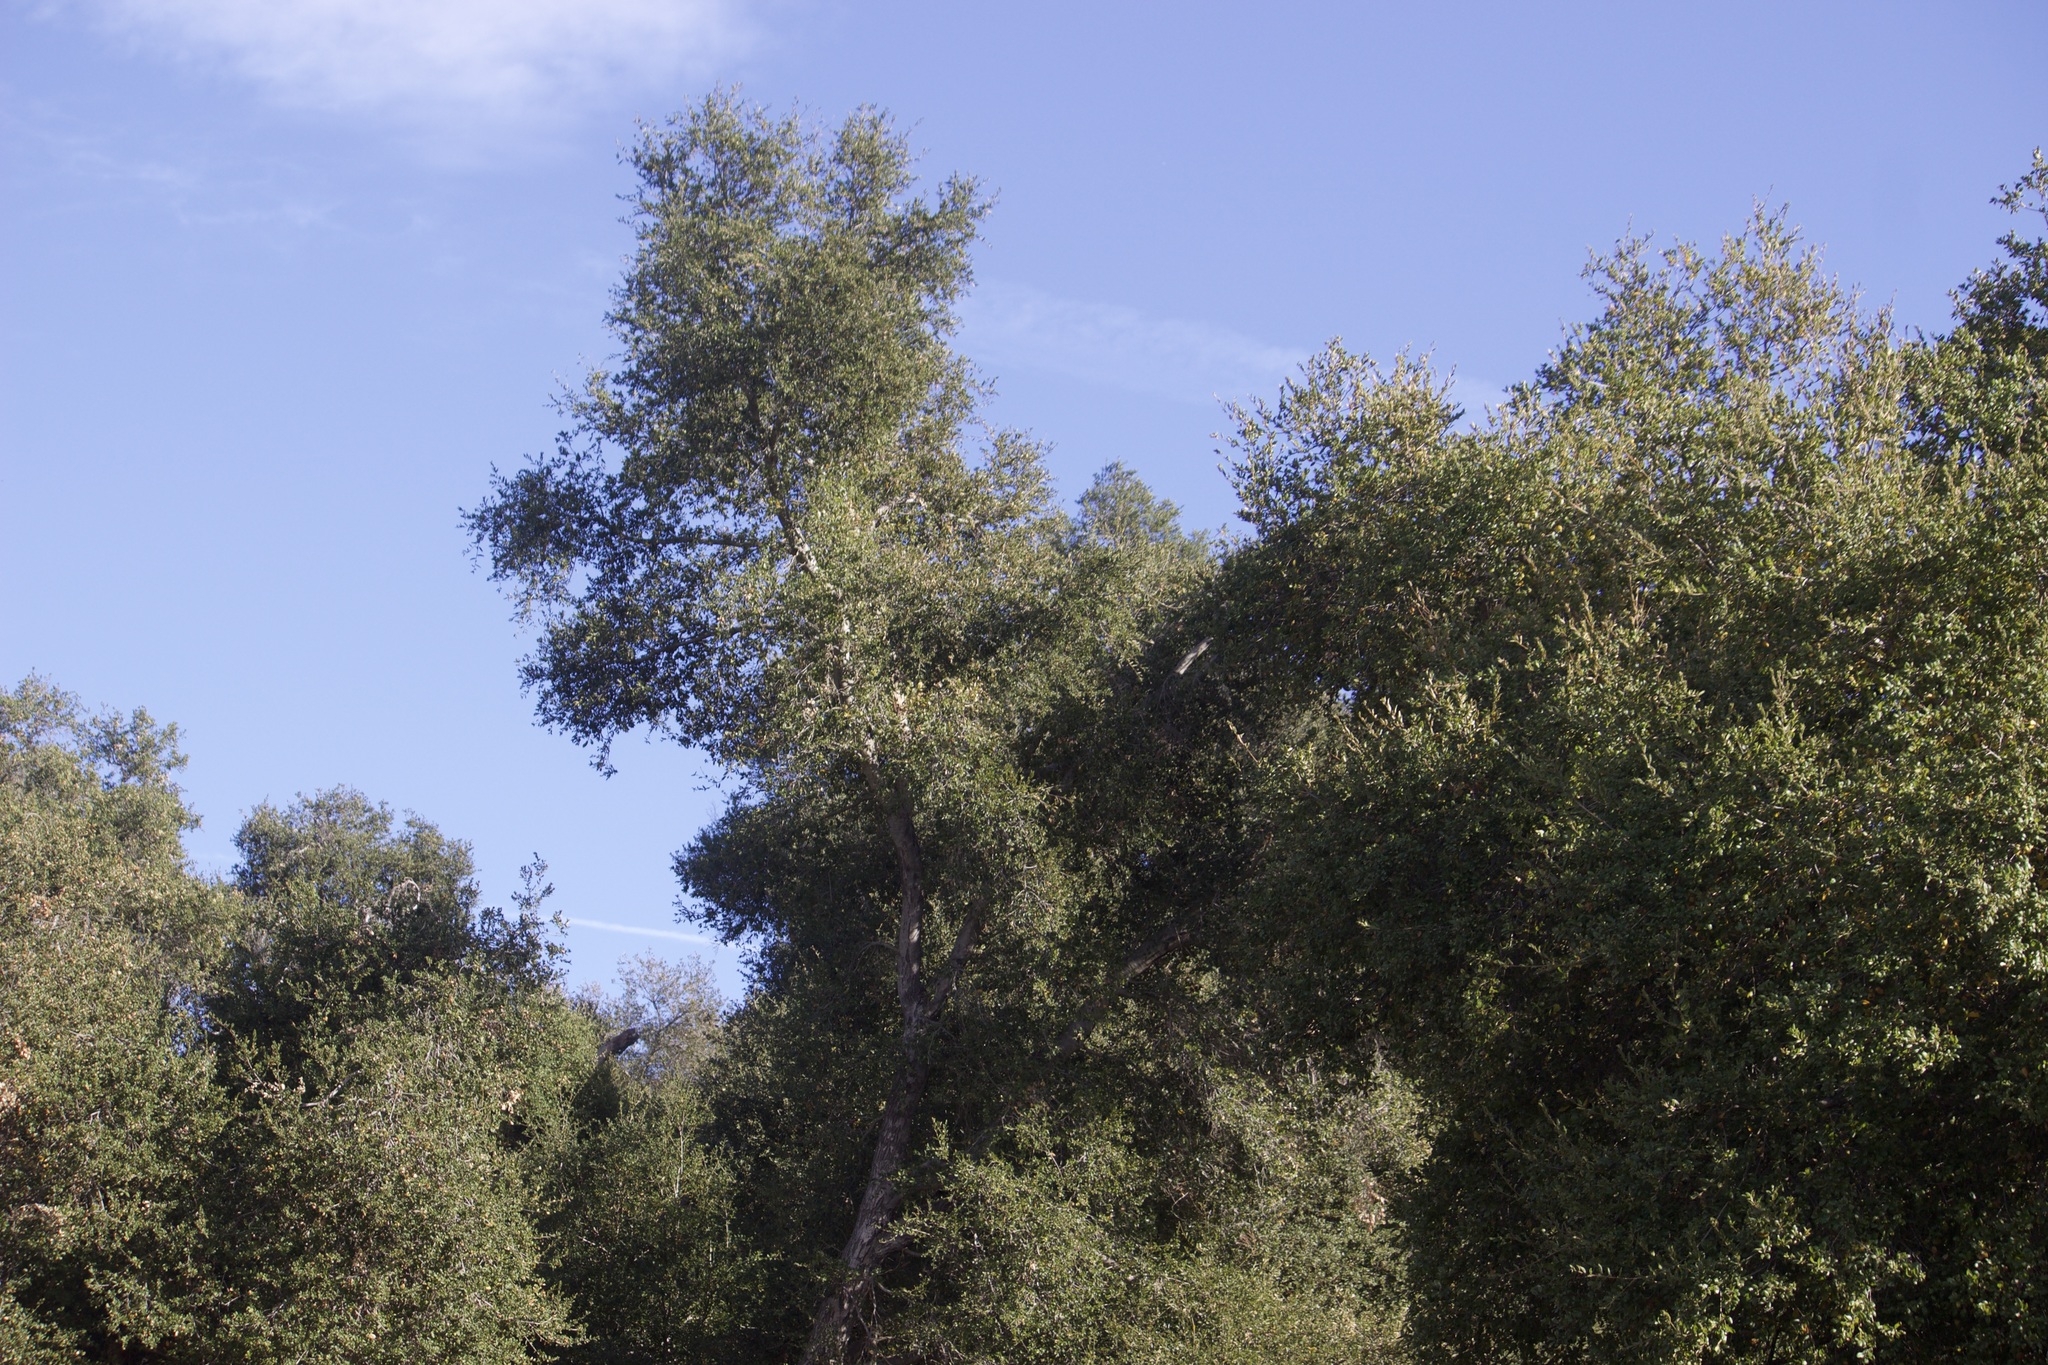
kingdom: Plantae
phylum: Tracheophyta
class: Magnoliopsida
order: Fagales
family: Fagaceae
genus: Quercus
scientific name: Quercus agrifolia
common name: California live oak
